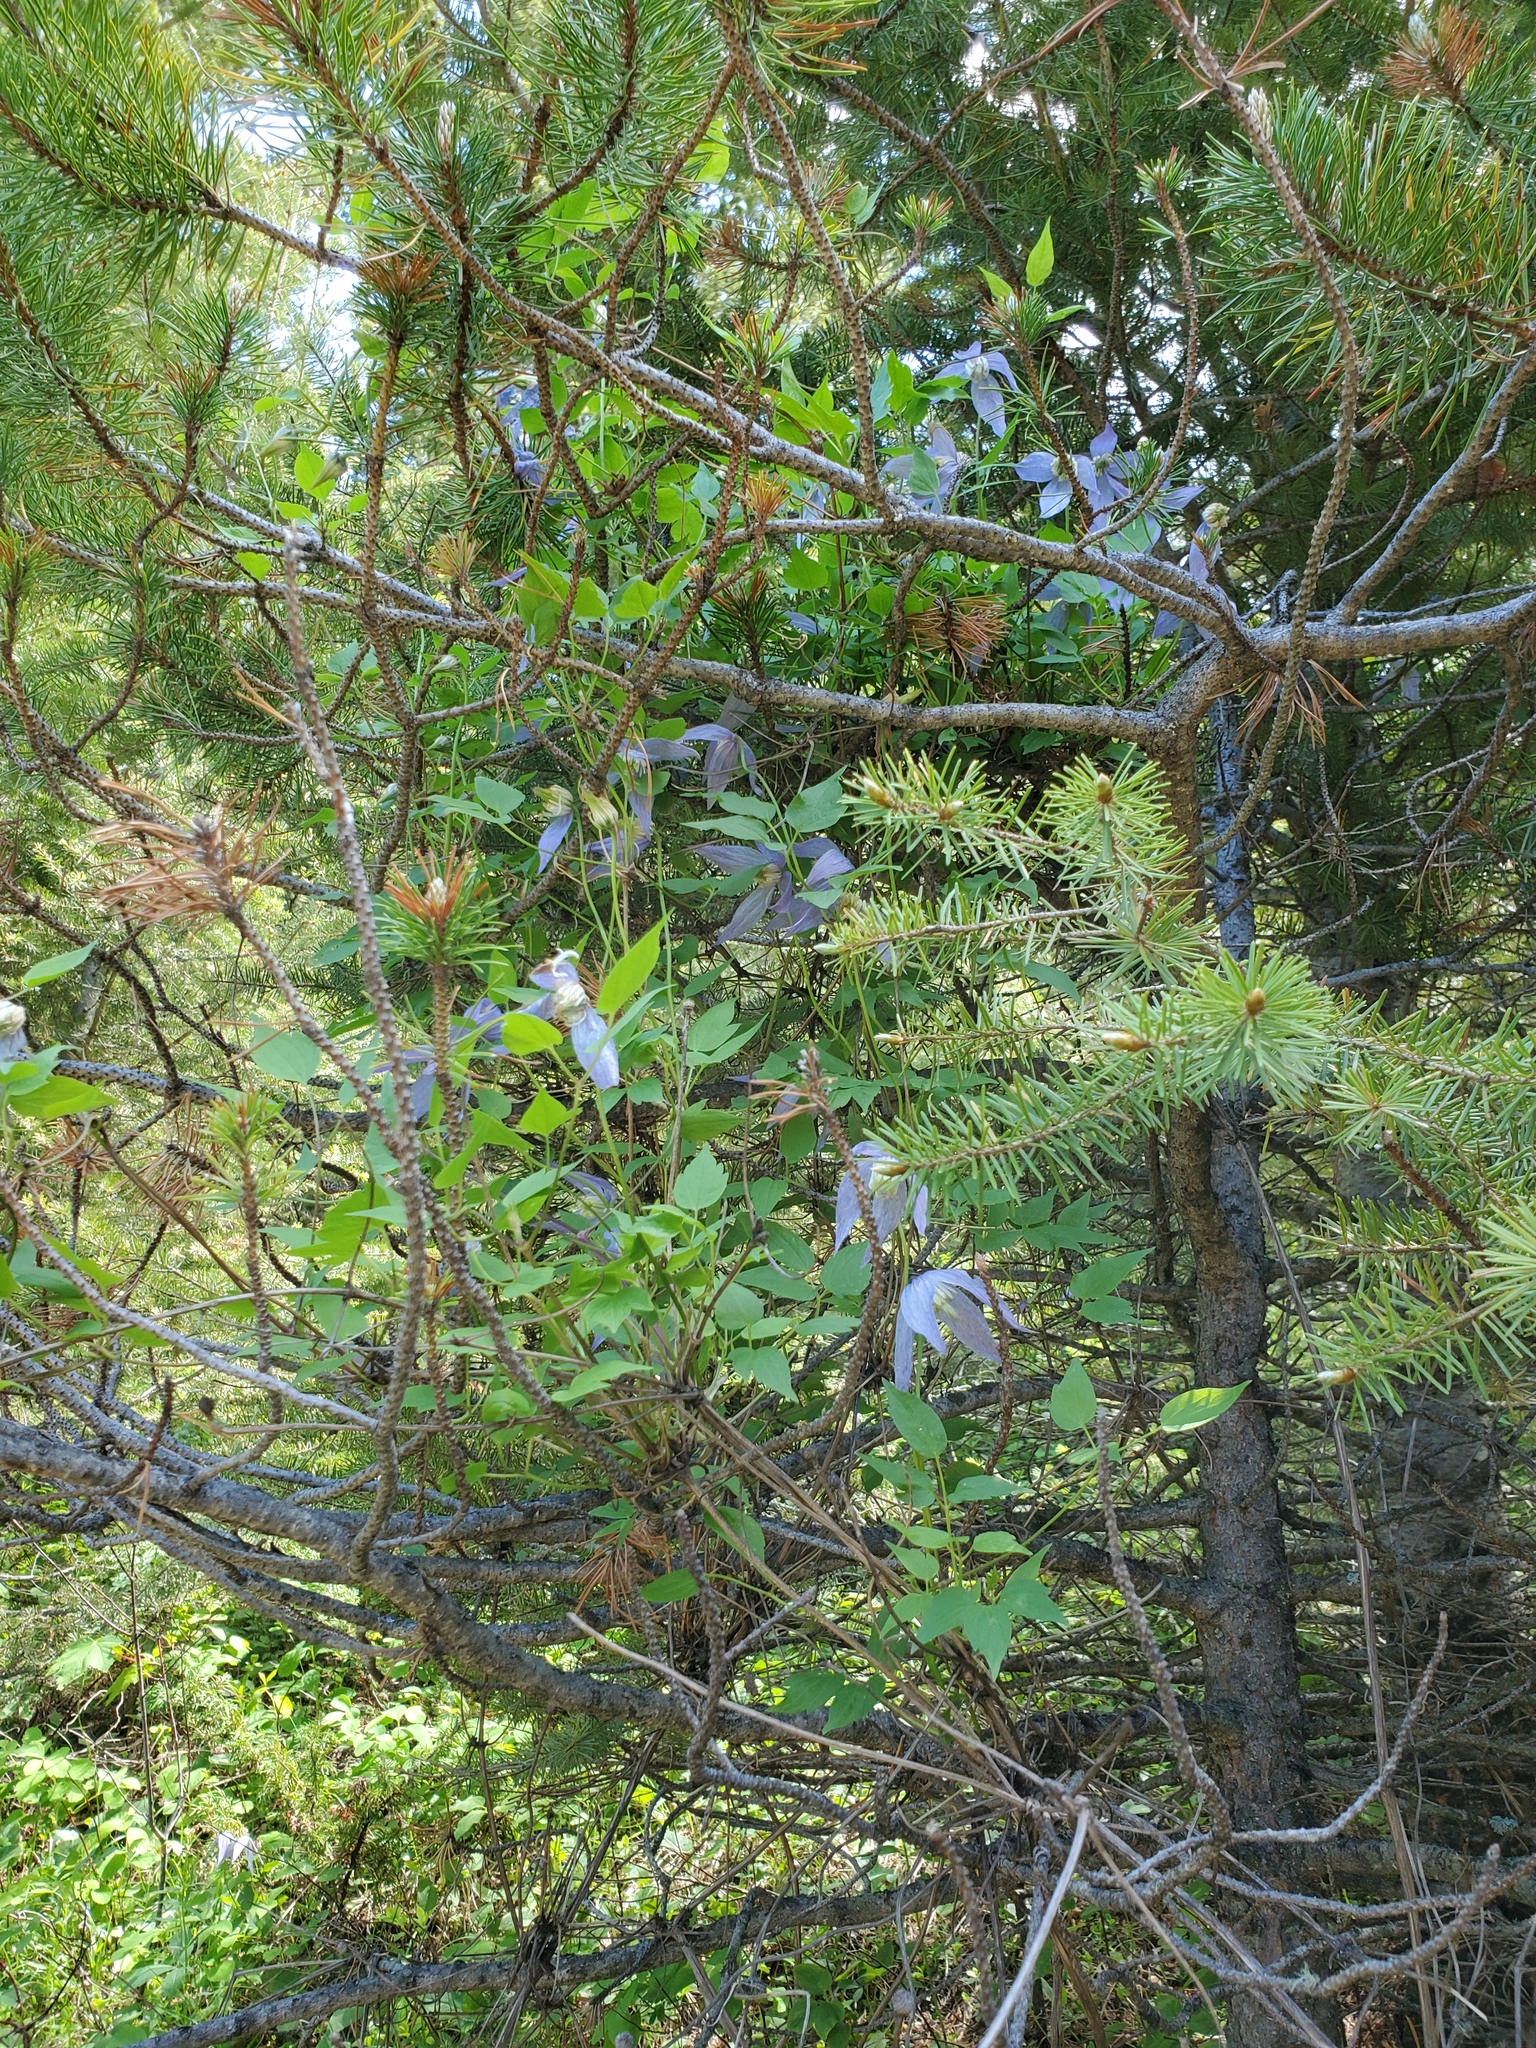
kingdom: Plantae
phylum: Tracheophyta
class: Magnoliopsida
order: Ranunculales
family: Ranunculaceae
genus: Clematis
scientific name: Clematis occidentalis
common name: Purple clematis
